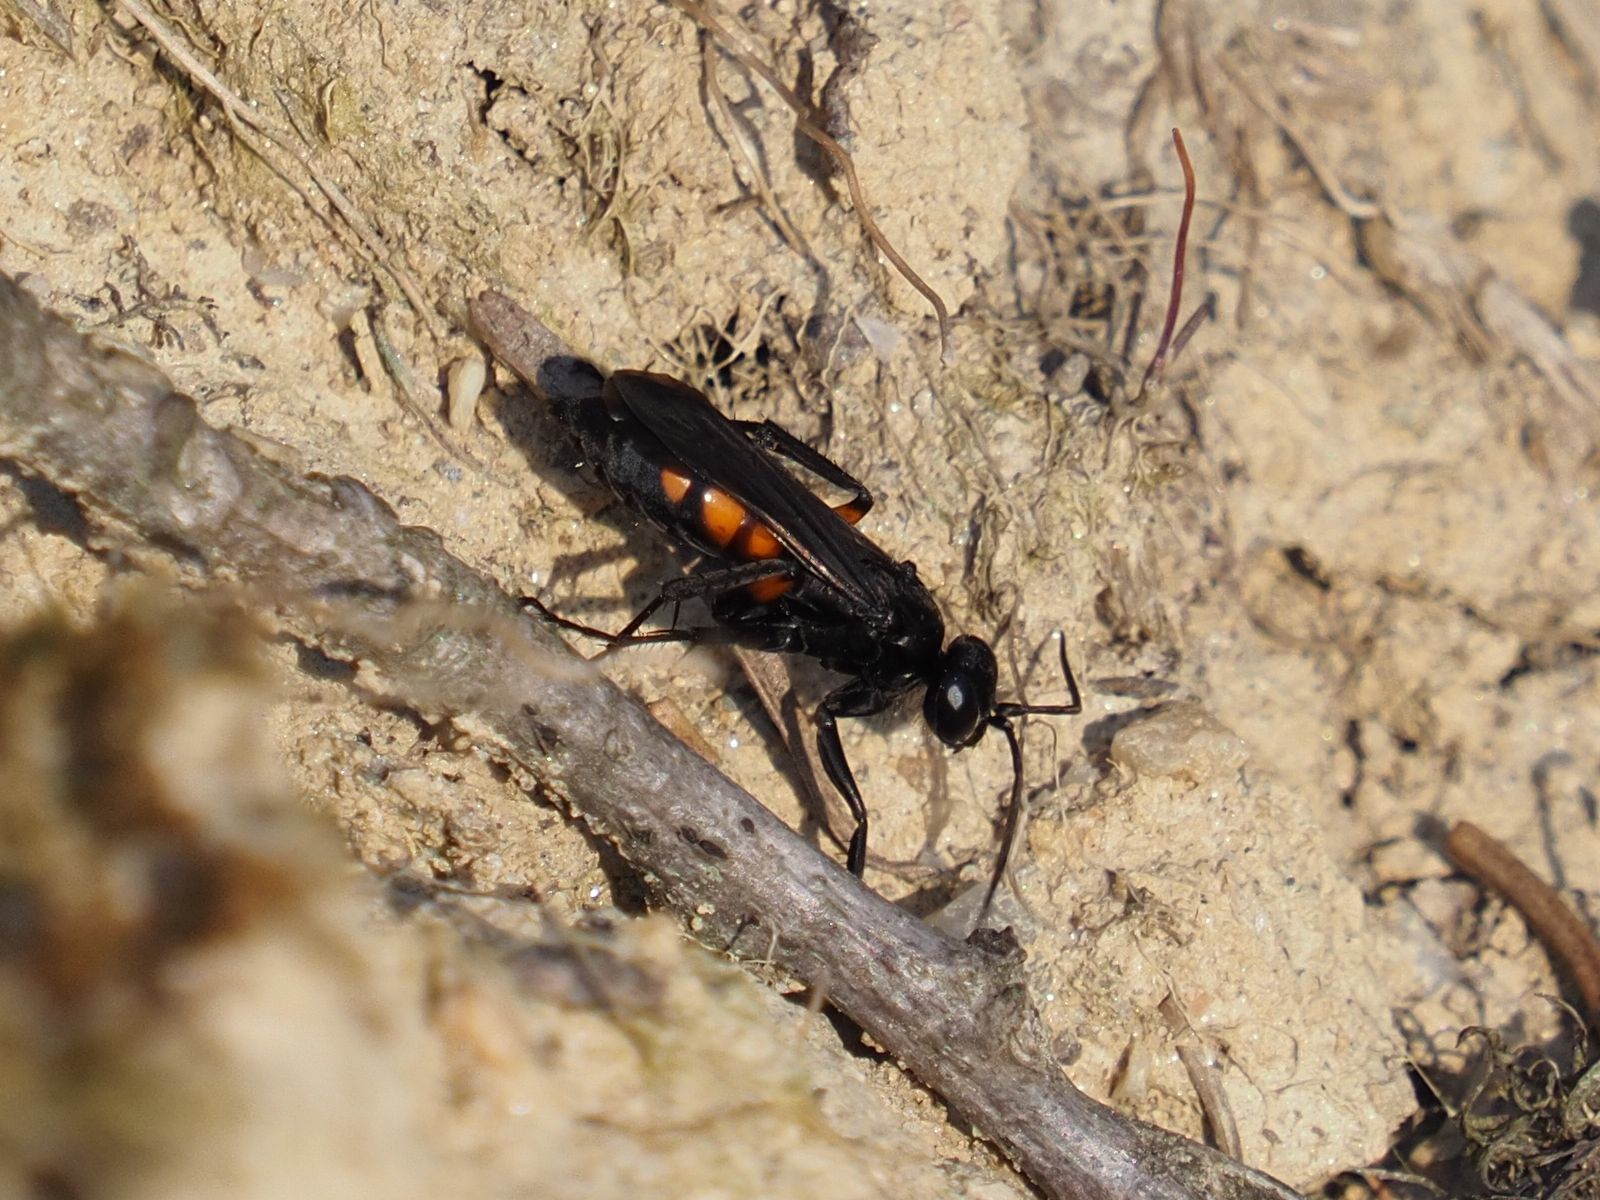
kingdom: Animalia
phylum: Arthropoda
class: Insecta
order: Hymenoptera
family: Pompilidae
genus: Anoplius
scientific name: Anoplius viaticus
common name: Black banded spider wasp
